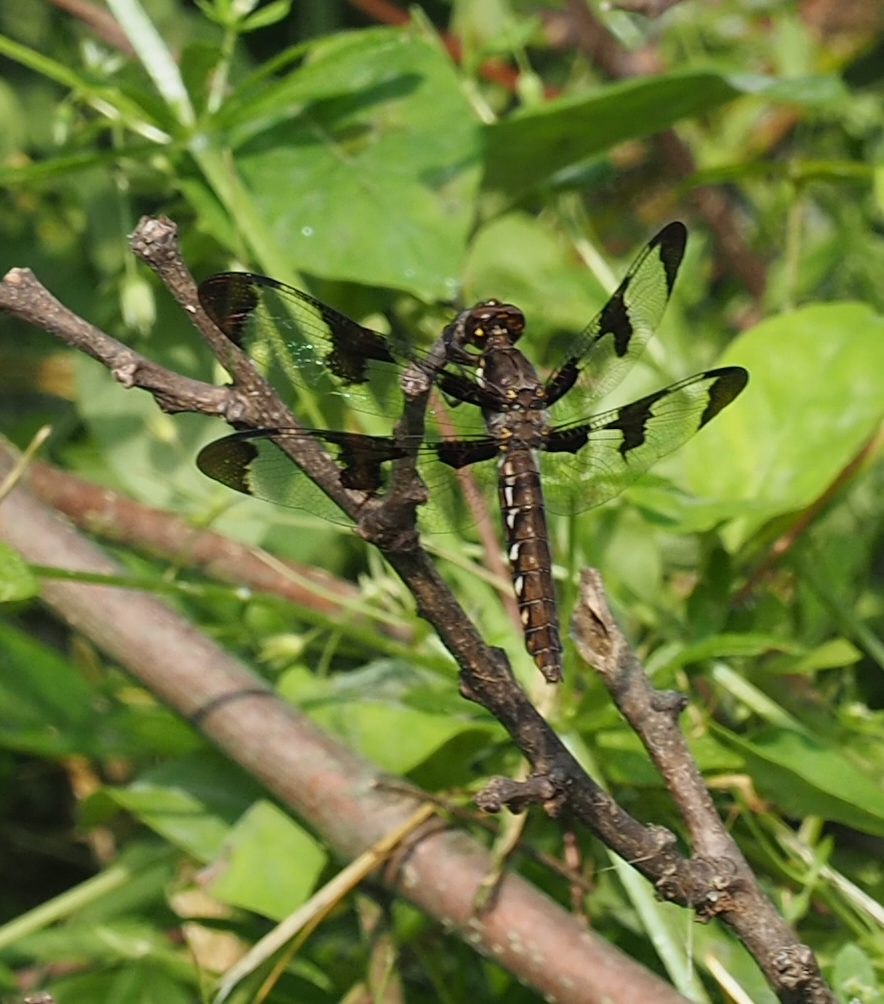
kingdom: Animalia
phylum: Arthropoda
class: Insecta
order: Odonata
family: Libellulidae
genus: Plathemis
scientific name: Plathemis lydia
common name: Common whitetail
